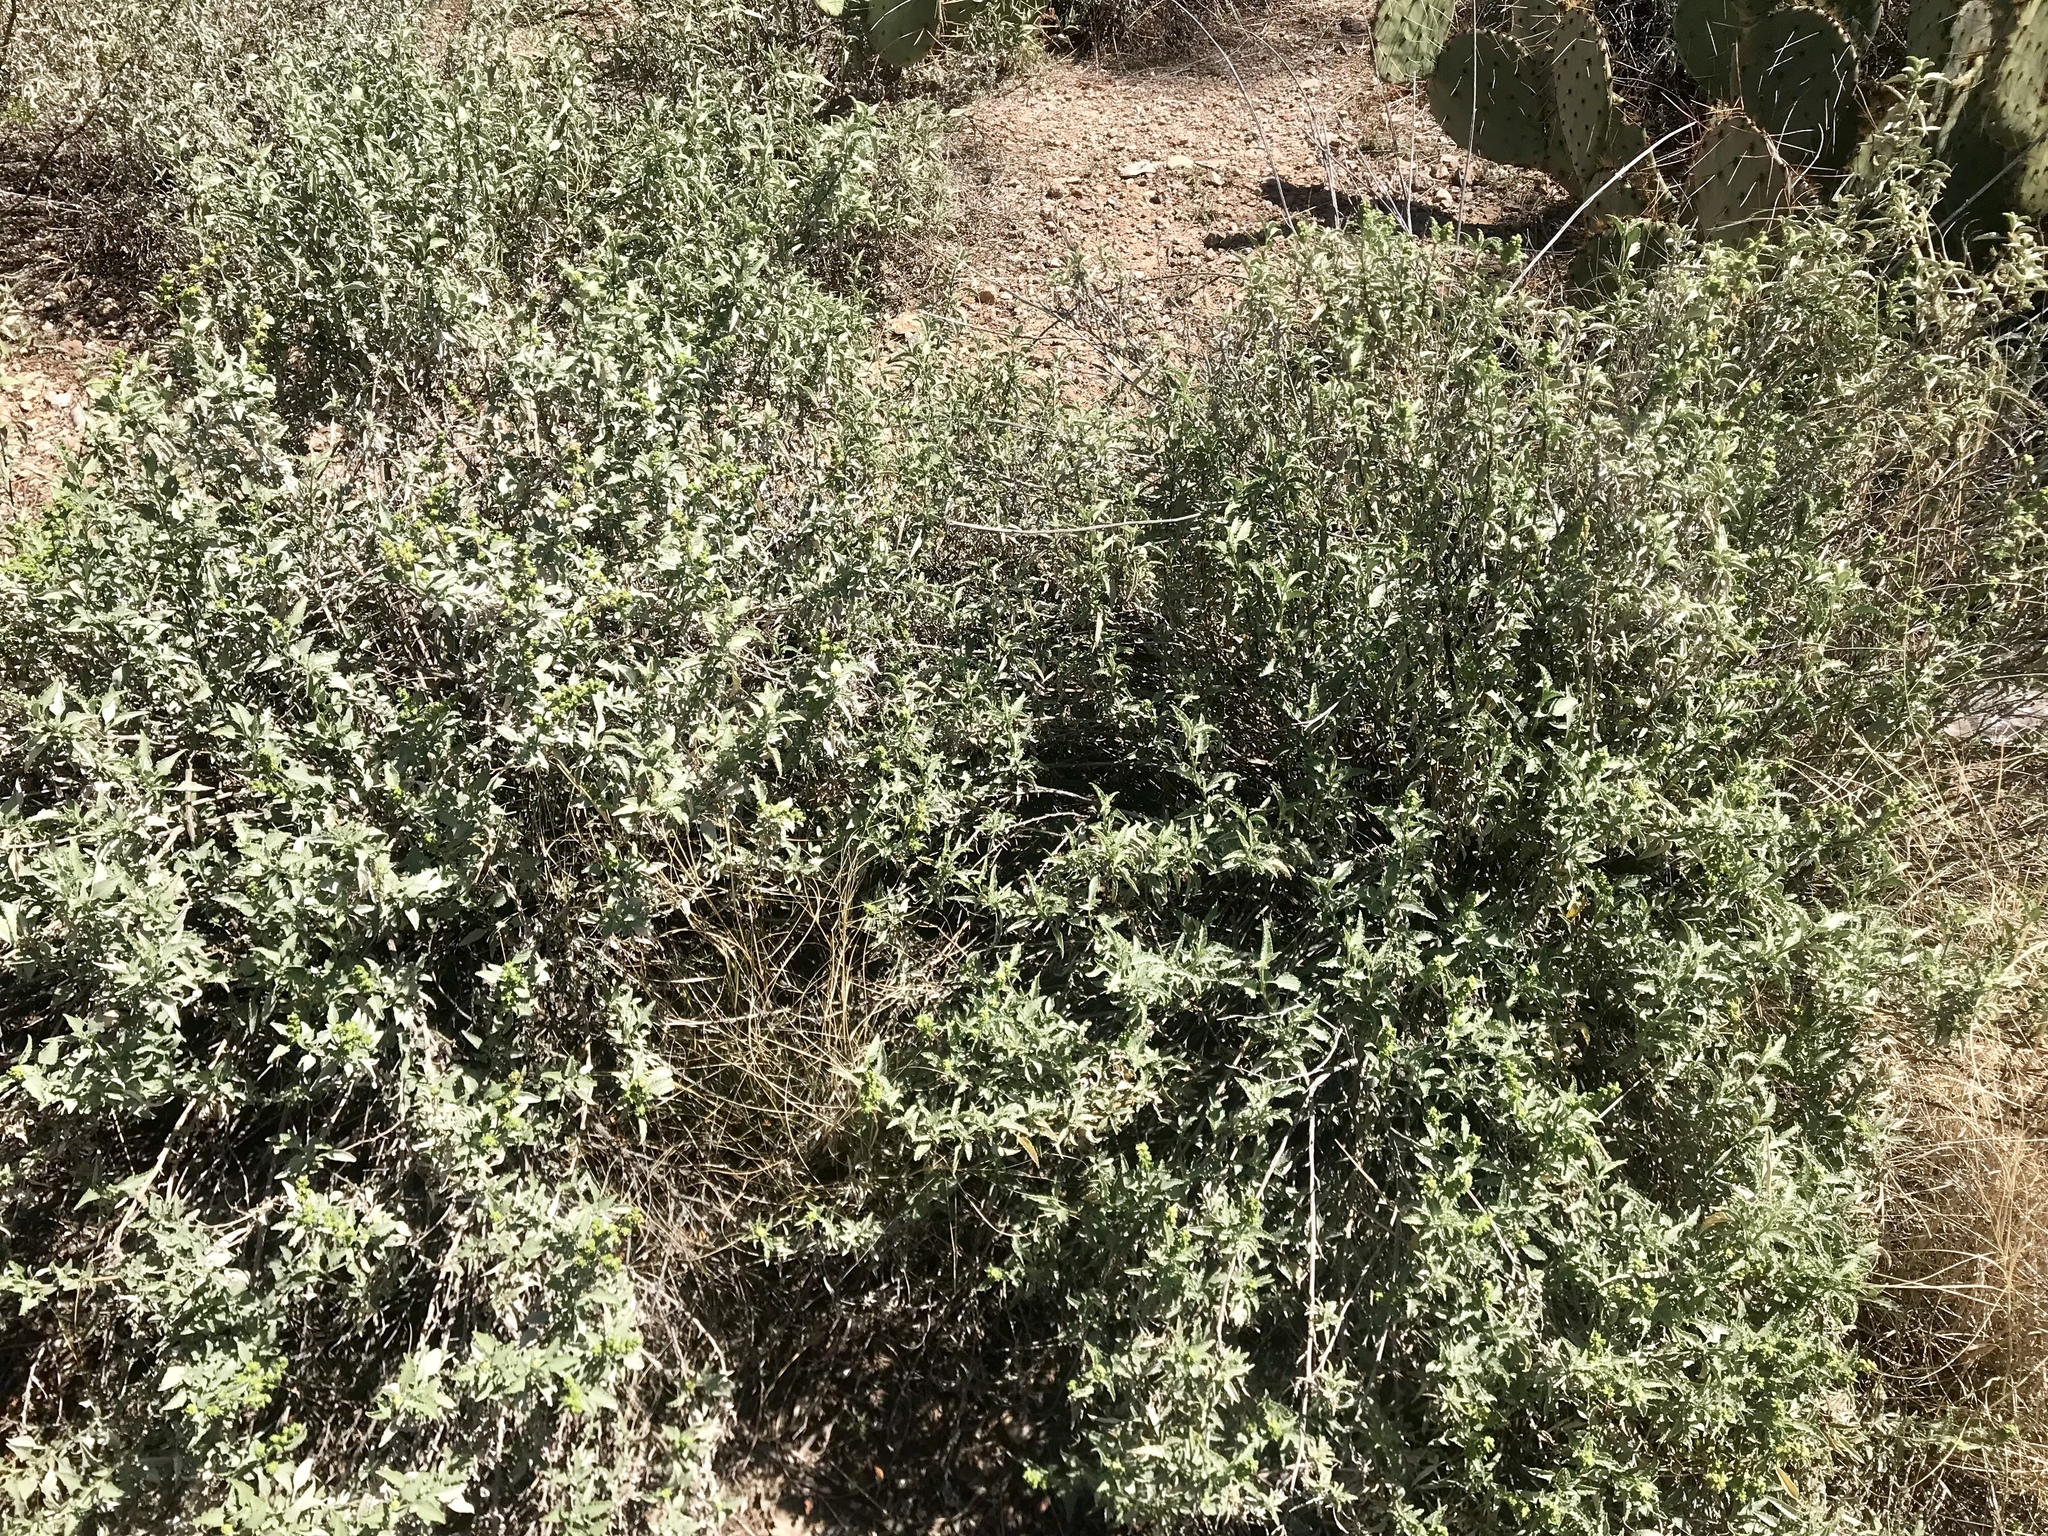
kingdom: Plantae
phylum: Tracheophyta
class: Magnoliopsida
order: Asterales
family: Asteraceae
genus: Ambrosia
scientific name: Ambrosia deltoidea
